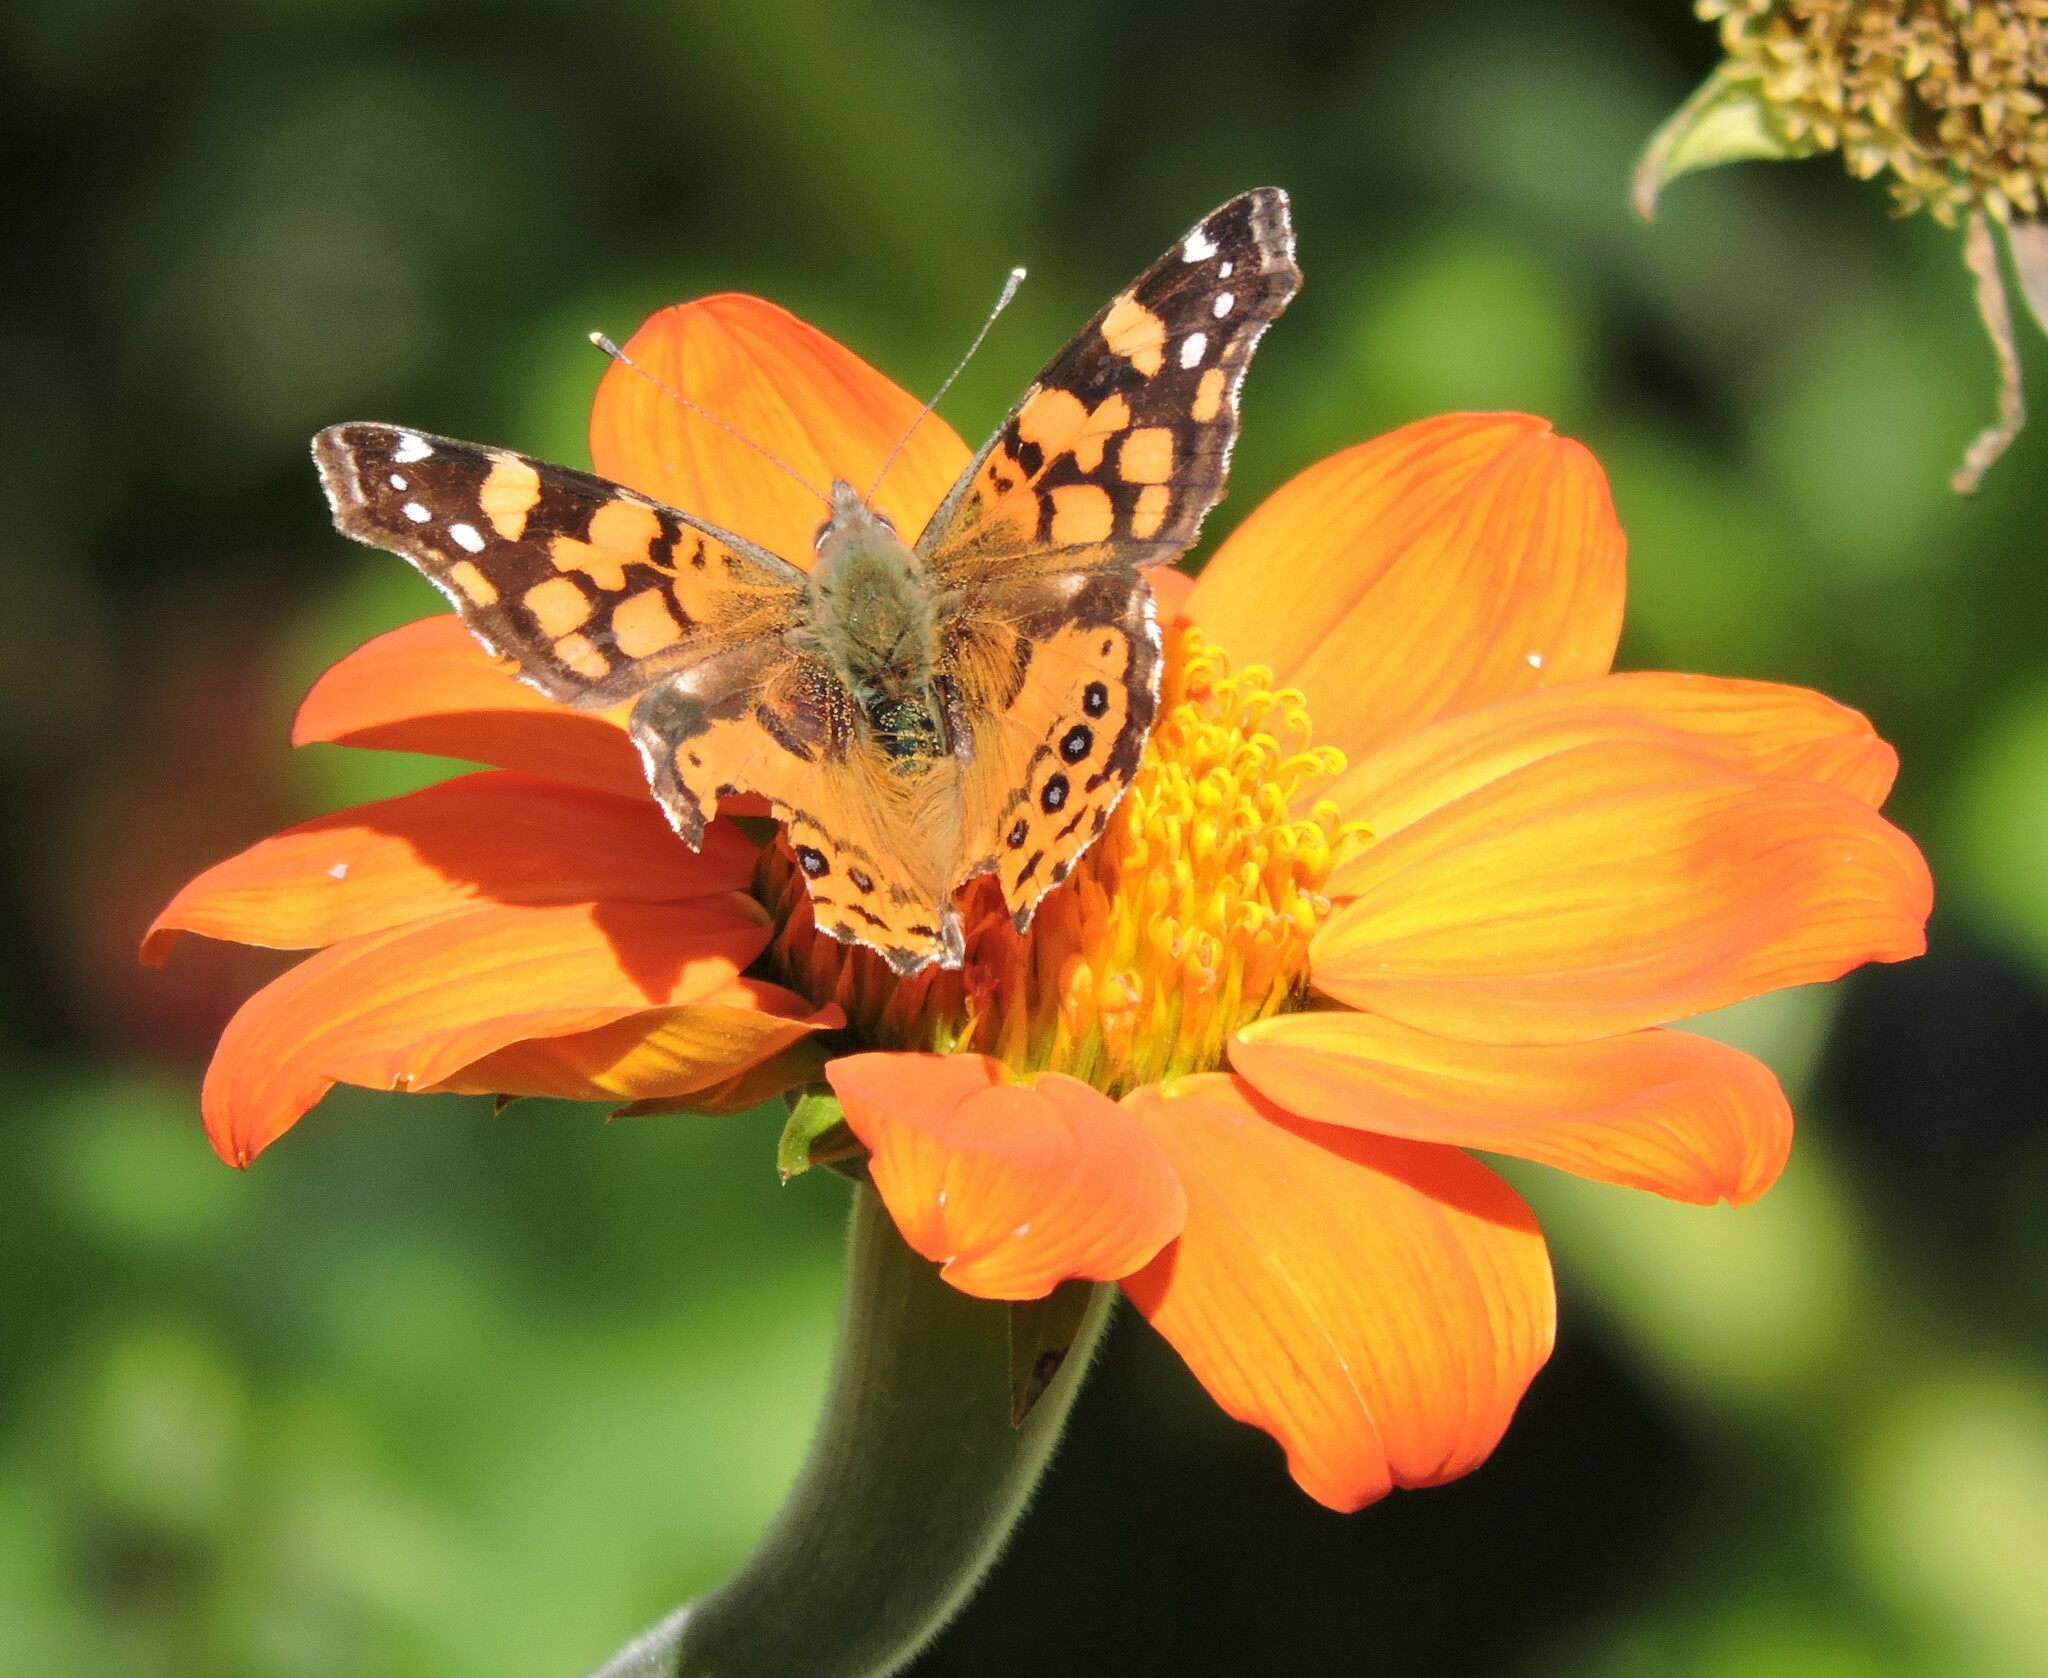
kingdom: Animalia
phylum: Arthropoda
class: Insecta
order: Lepidoptera
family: Nymphalidae
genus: Vanessa
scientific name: Vanessa annabella
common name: West coast lady
